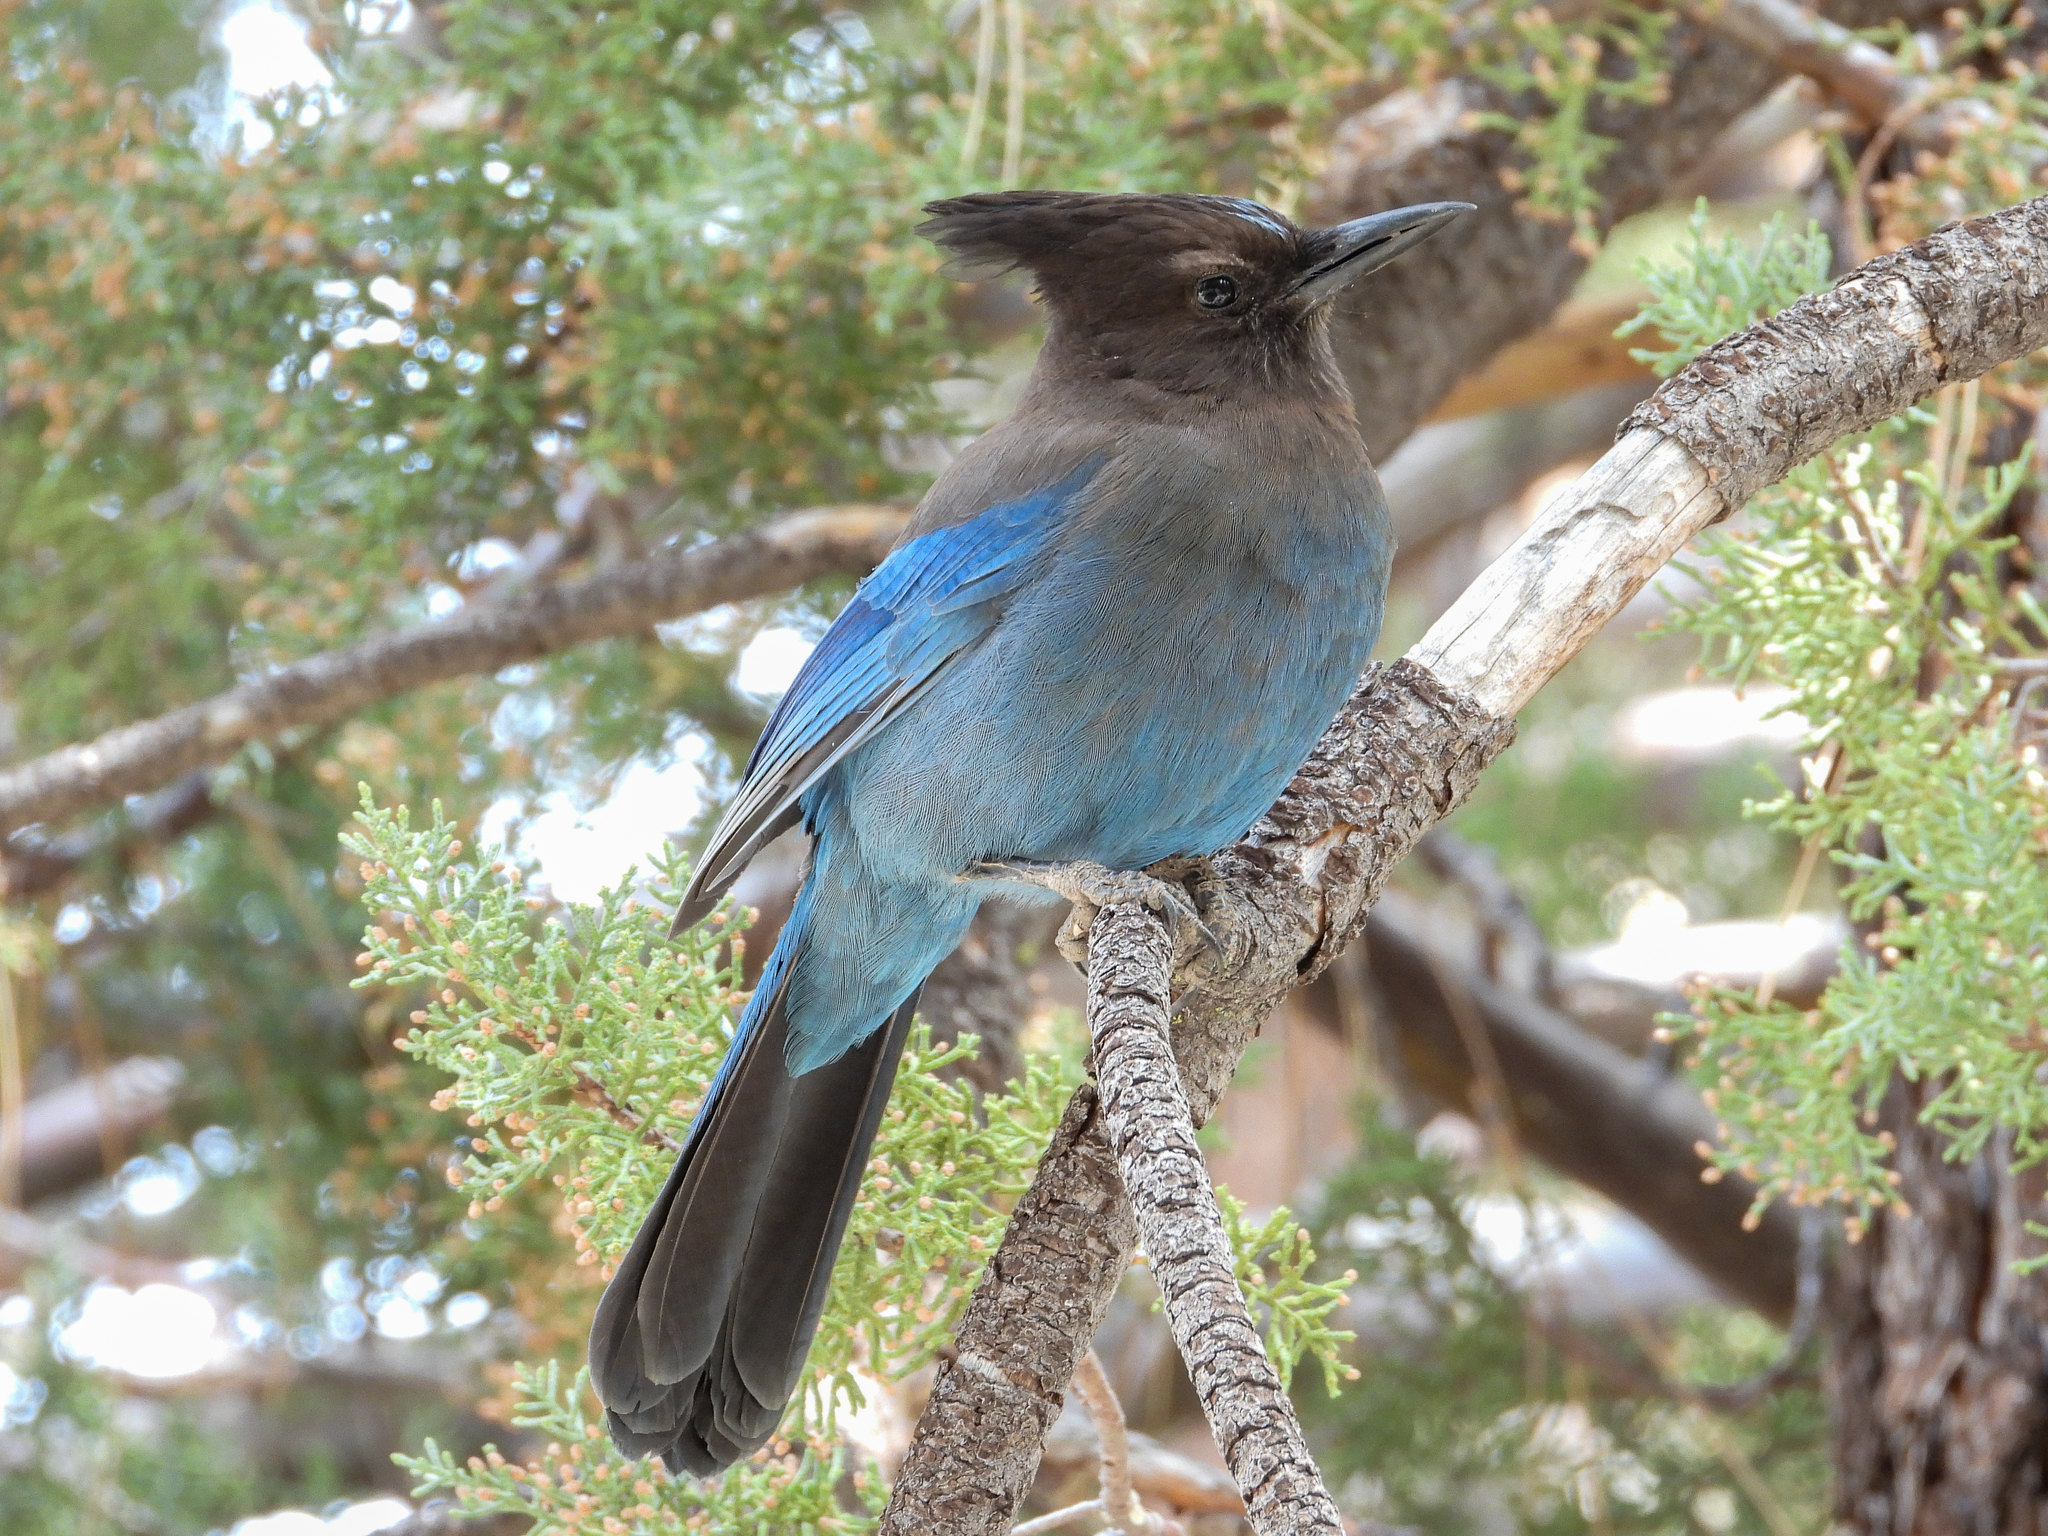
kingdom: Animalia
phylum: Chordata
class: Aves
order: Passeriformes
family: Corvidae
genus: Cyanocitta
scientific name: Cyanocitta stelleri
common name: Steller's jay
